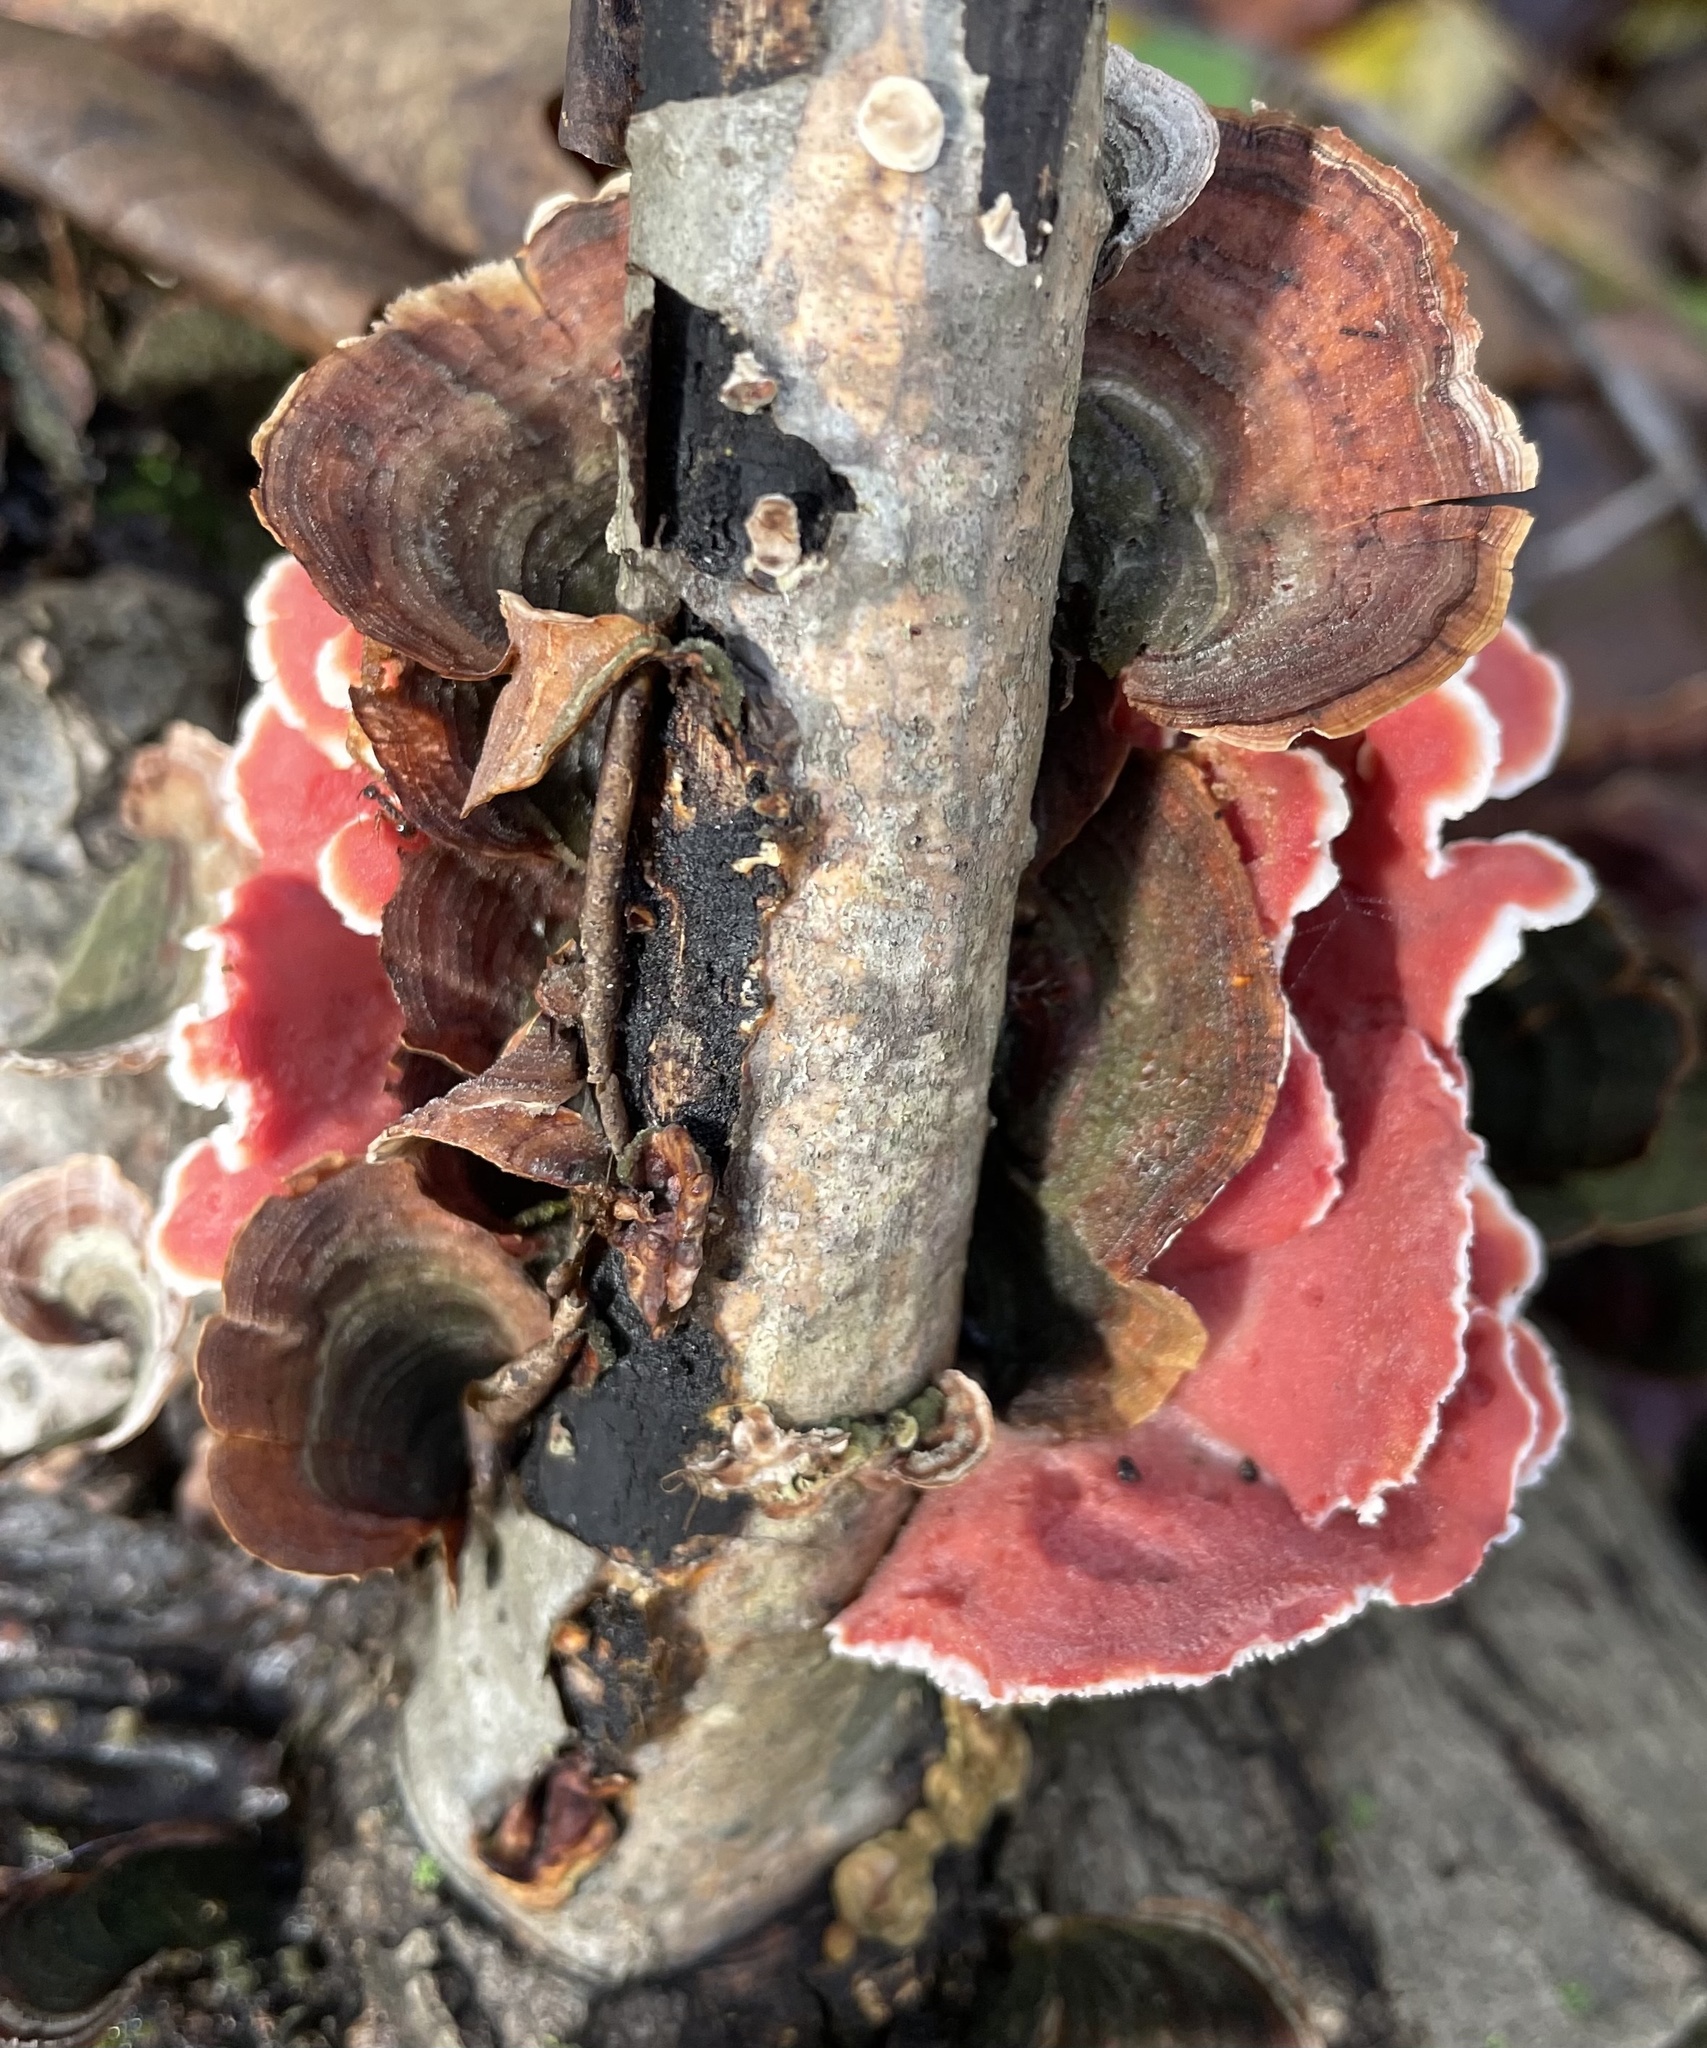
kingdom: Fungi
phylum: Basidiomycota
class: Agaricomycetes
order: Polyporales
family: Irpicaceae
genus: Byssomerulius
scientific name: Byssomerulius incarnatus
